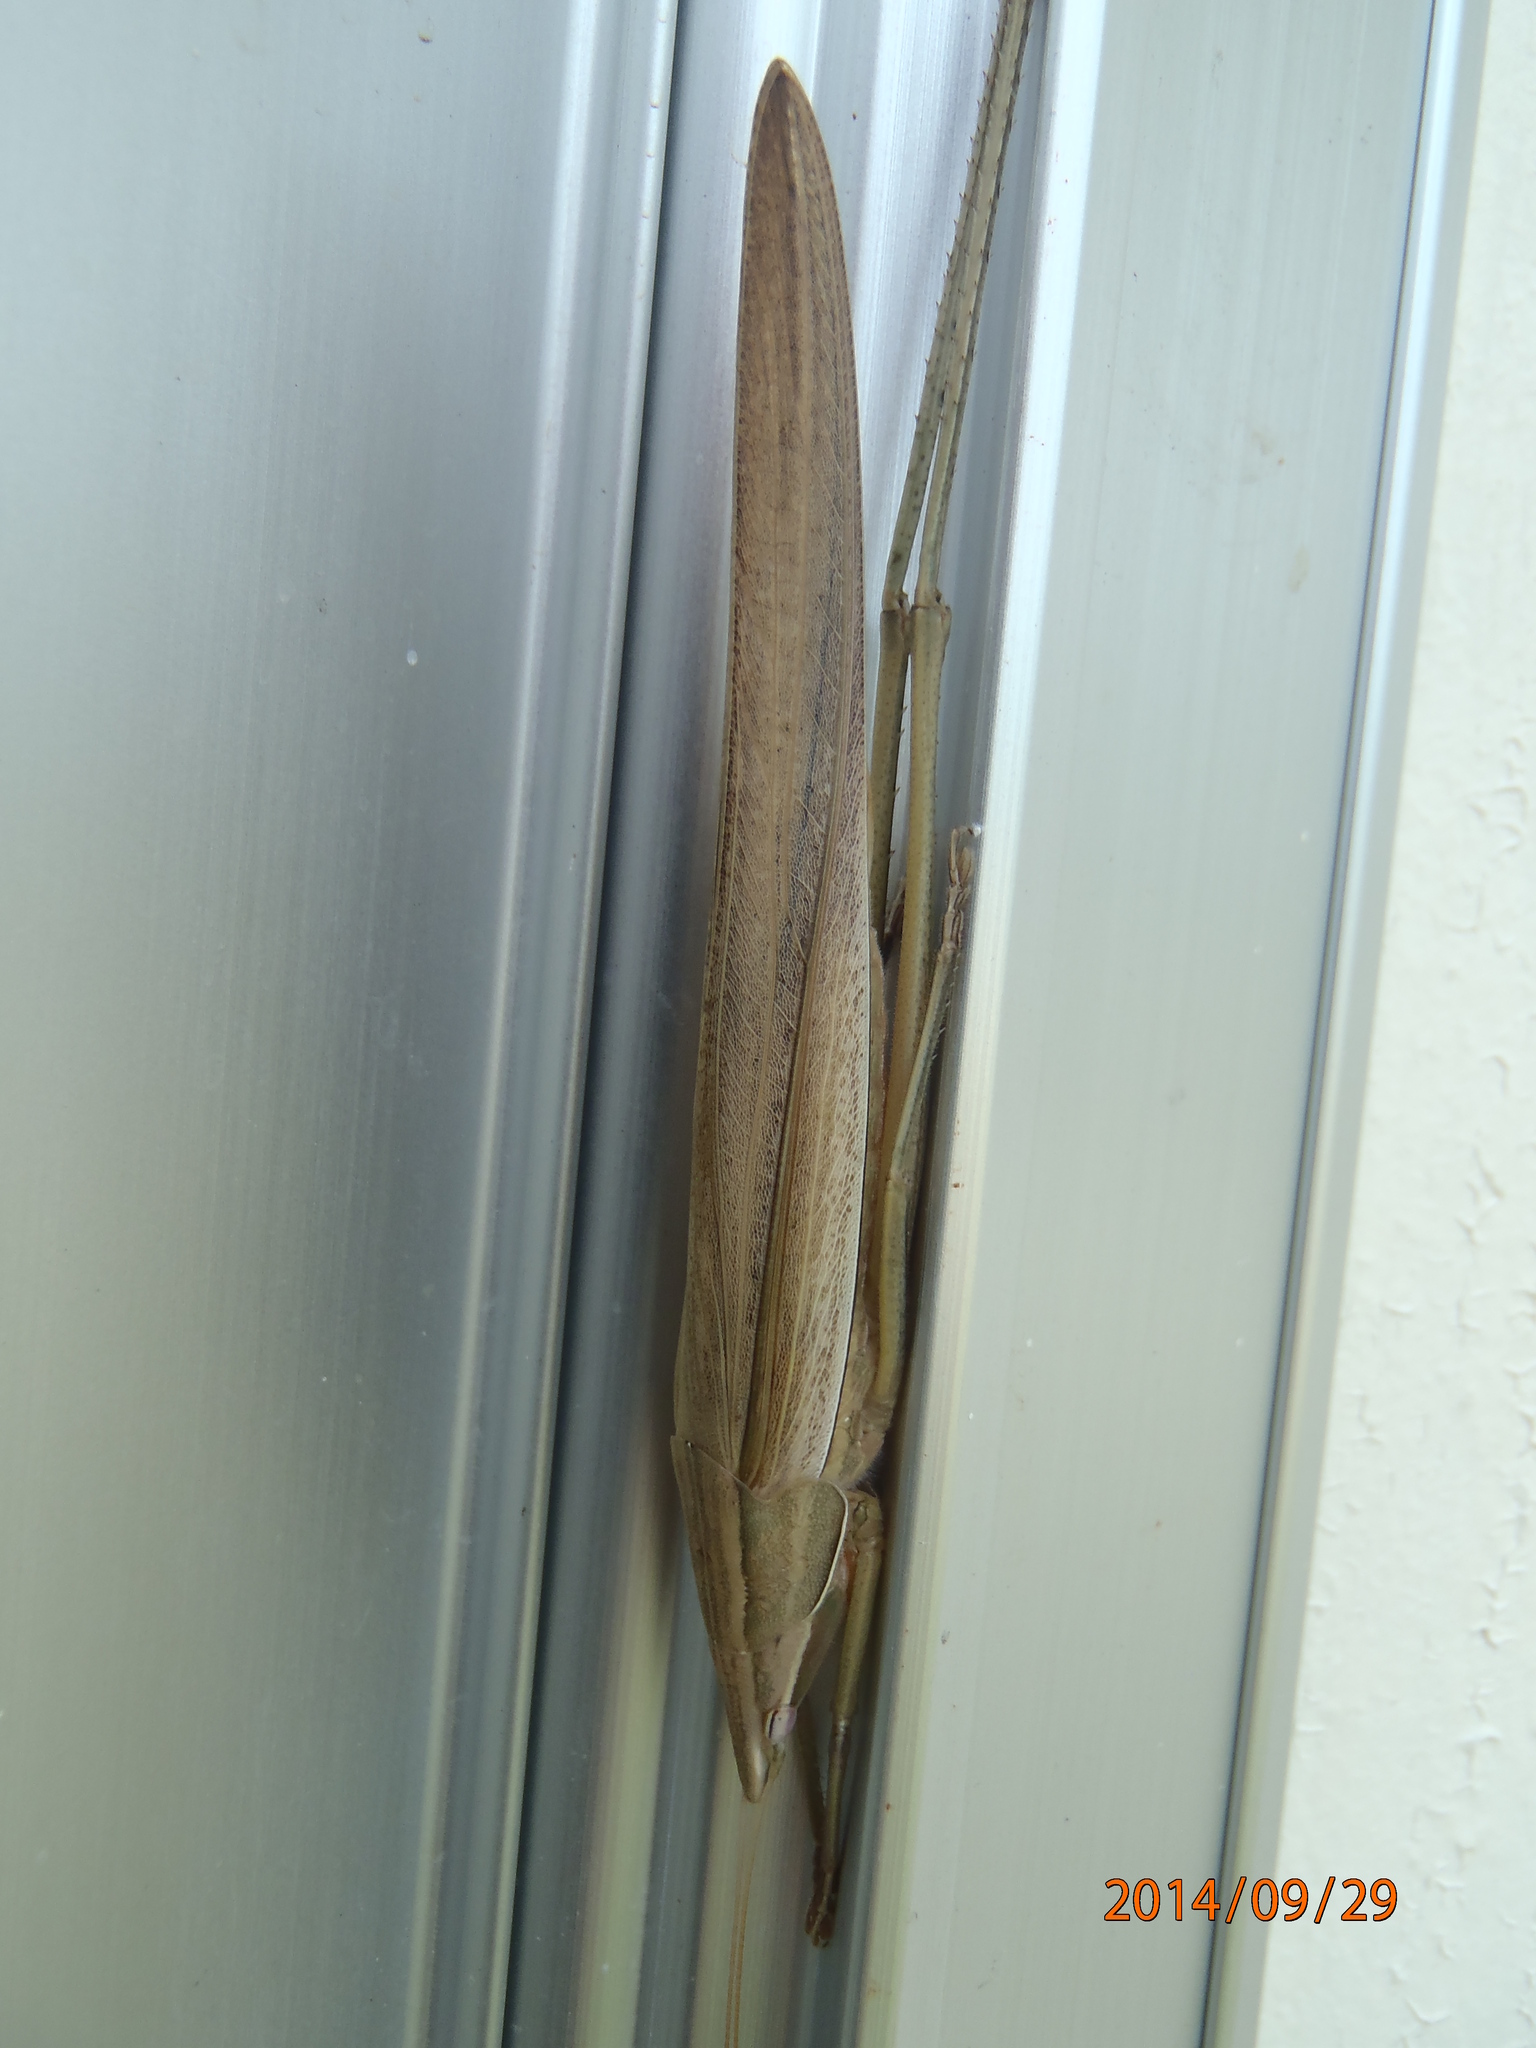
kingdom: Animalia
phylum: Arthropoda
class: Insecta
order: Orthoptera
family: Tettigoniidae
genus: Euconocephalus
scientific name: Euconocephalus nasutus
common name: Grasshopper
